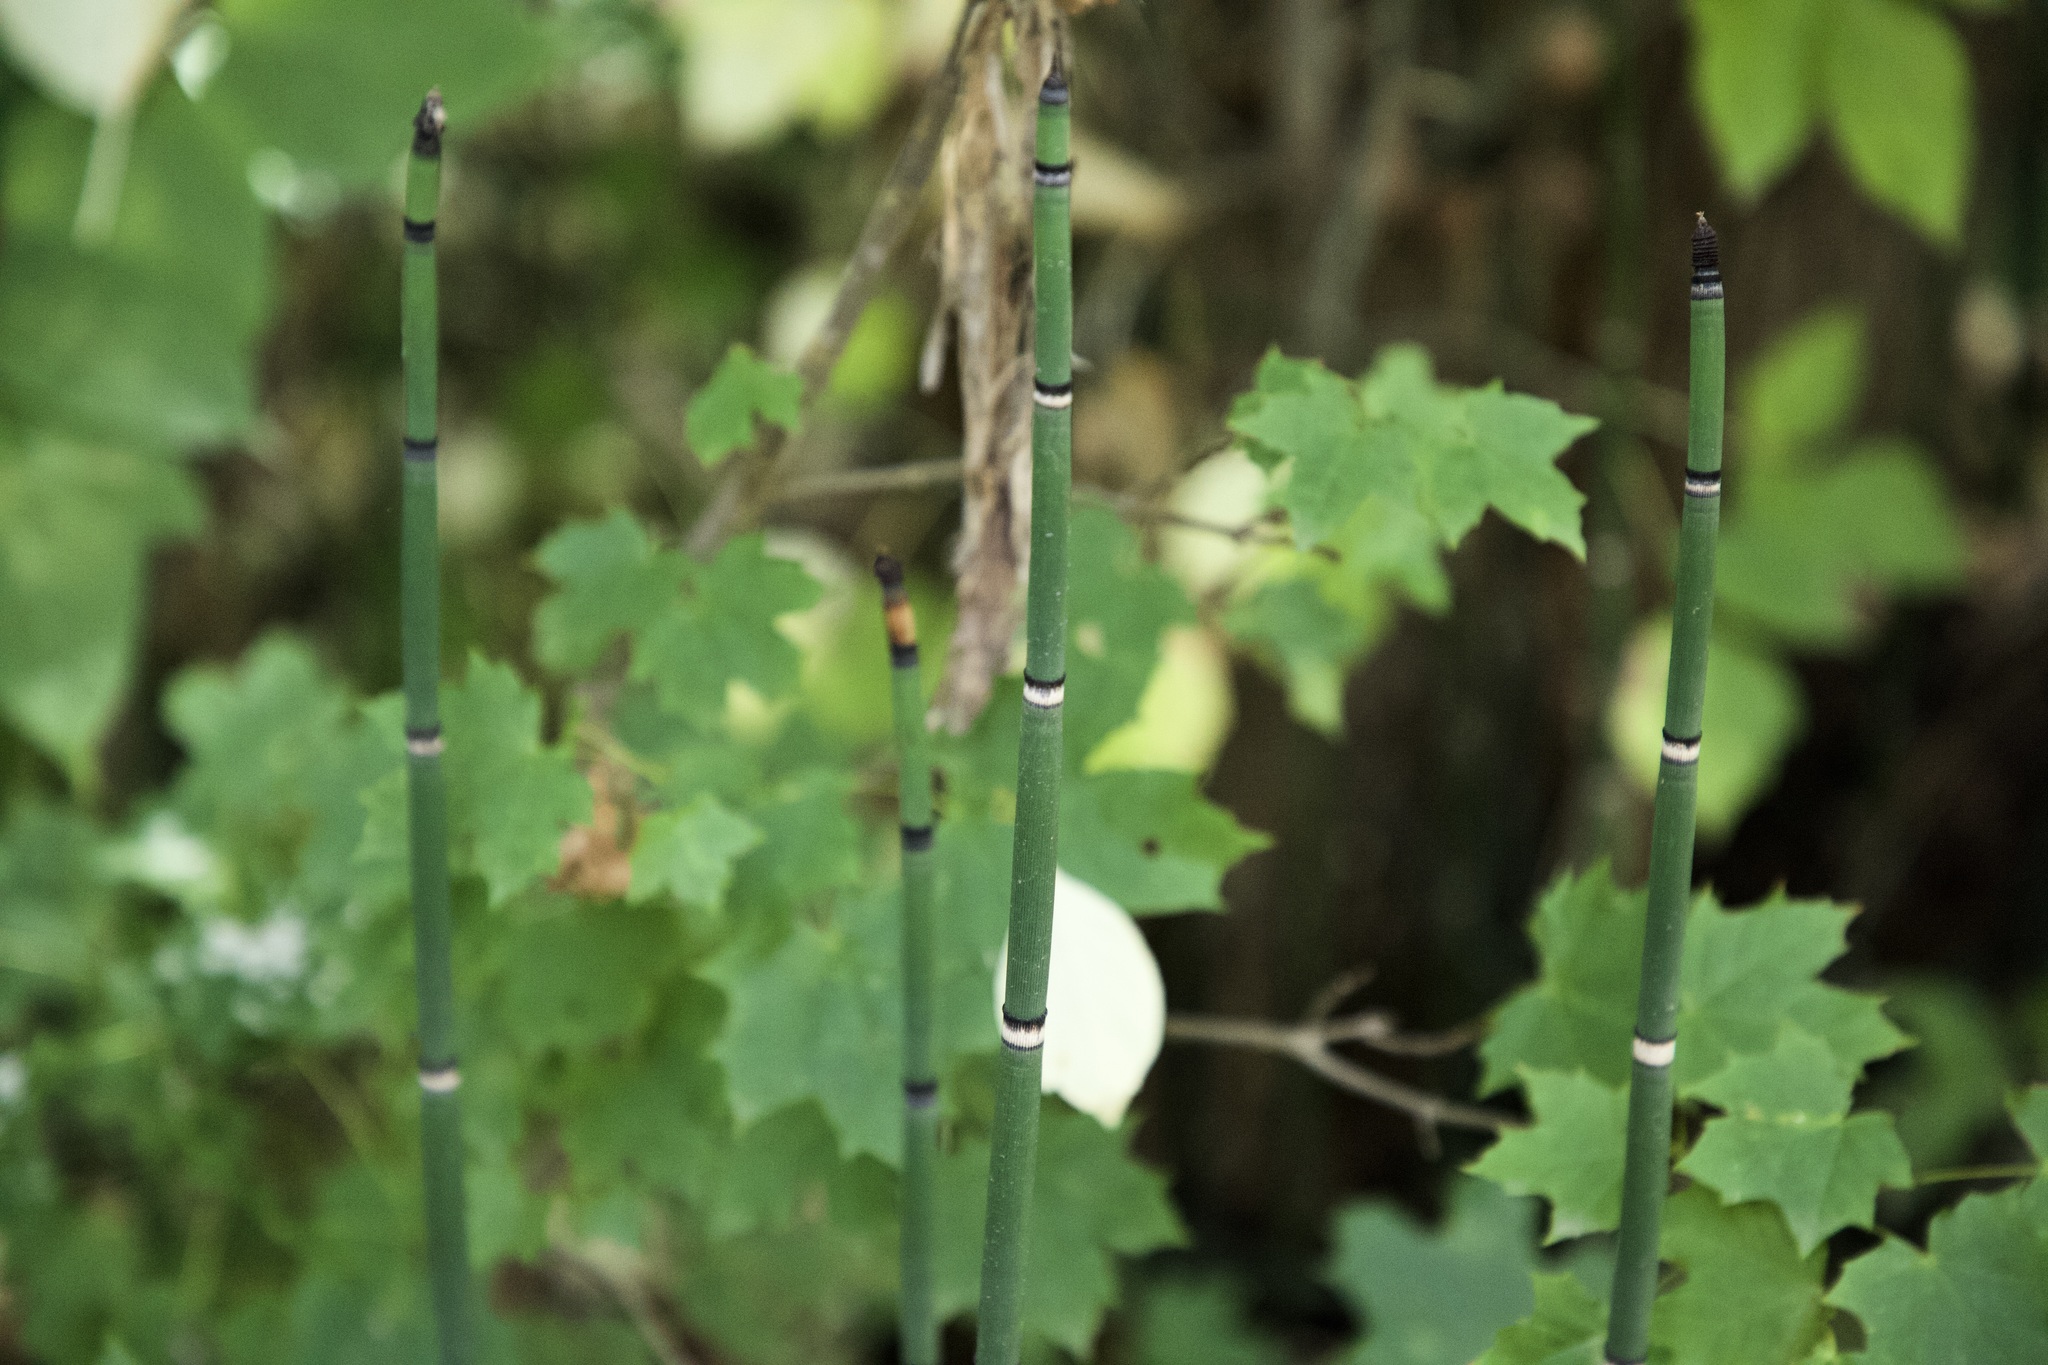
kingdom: Plantae
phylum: Tracheophyta
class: Polypodiopsida
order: Equisetales
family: Equisetaceae
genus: Equisetum
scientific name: Equisetum praealtum
